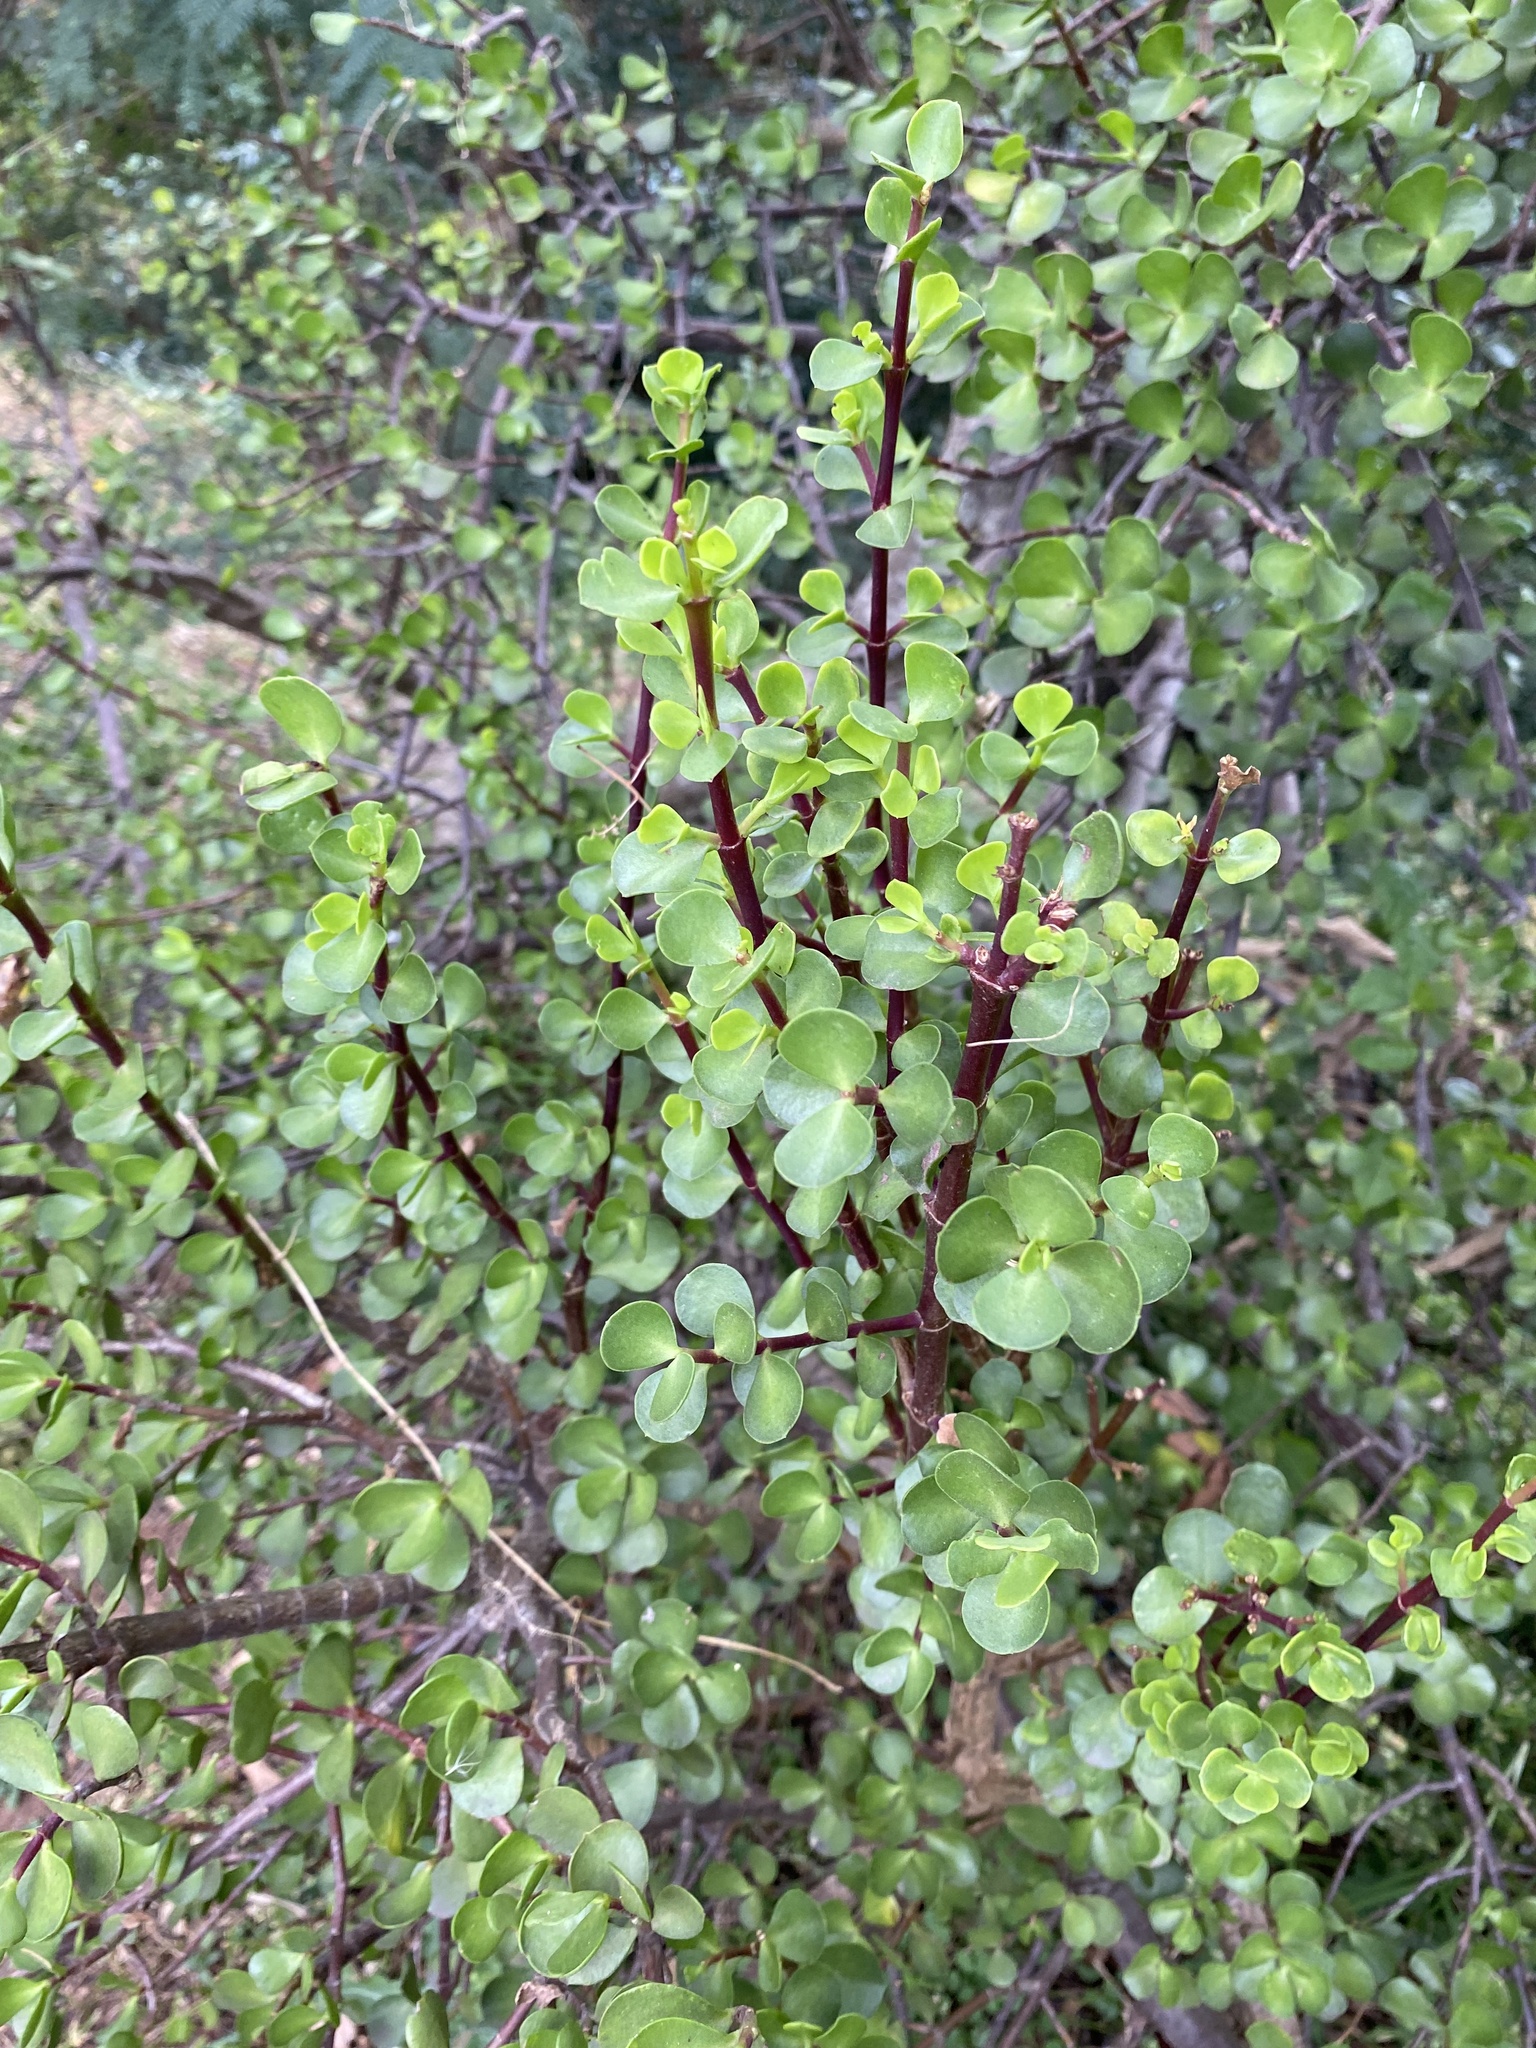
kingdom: Plantae
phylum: Tracheophyta
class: Magnoliopsida
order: Caryophyllales
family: Didiereaceae
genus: Portulacaria
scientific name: Portulacaria afra
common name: Elephant-bush
